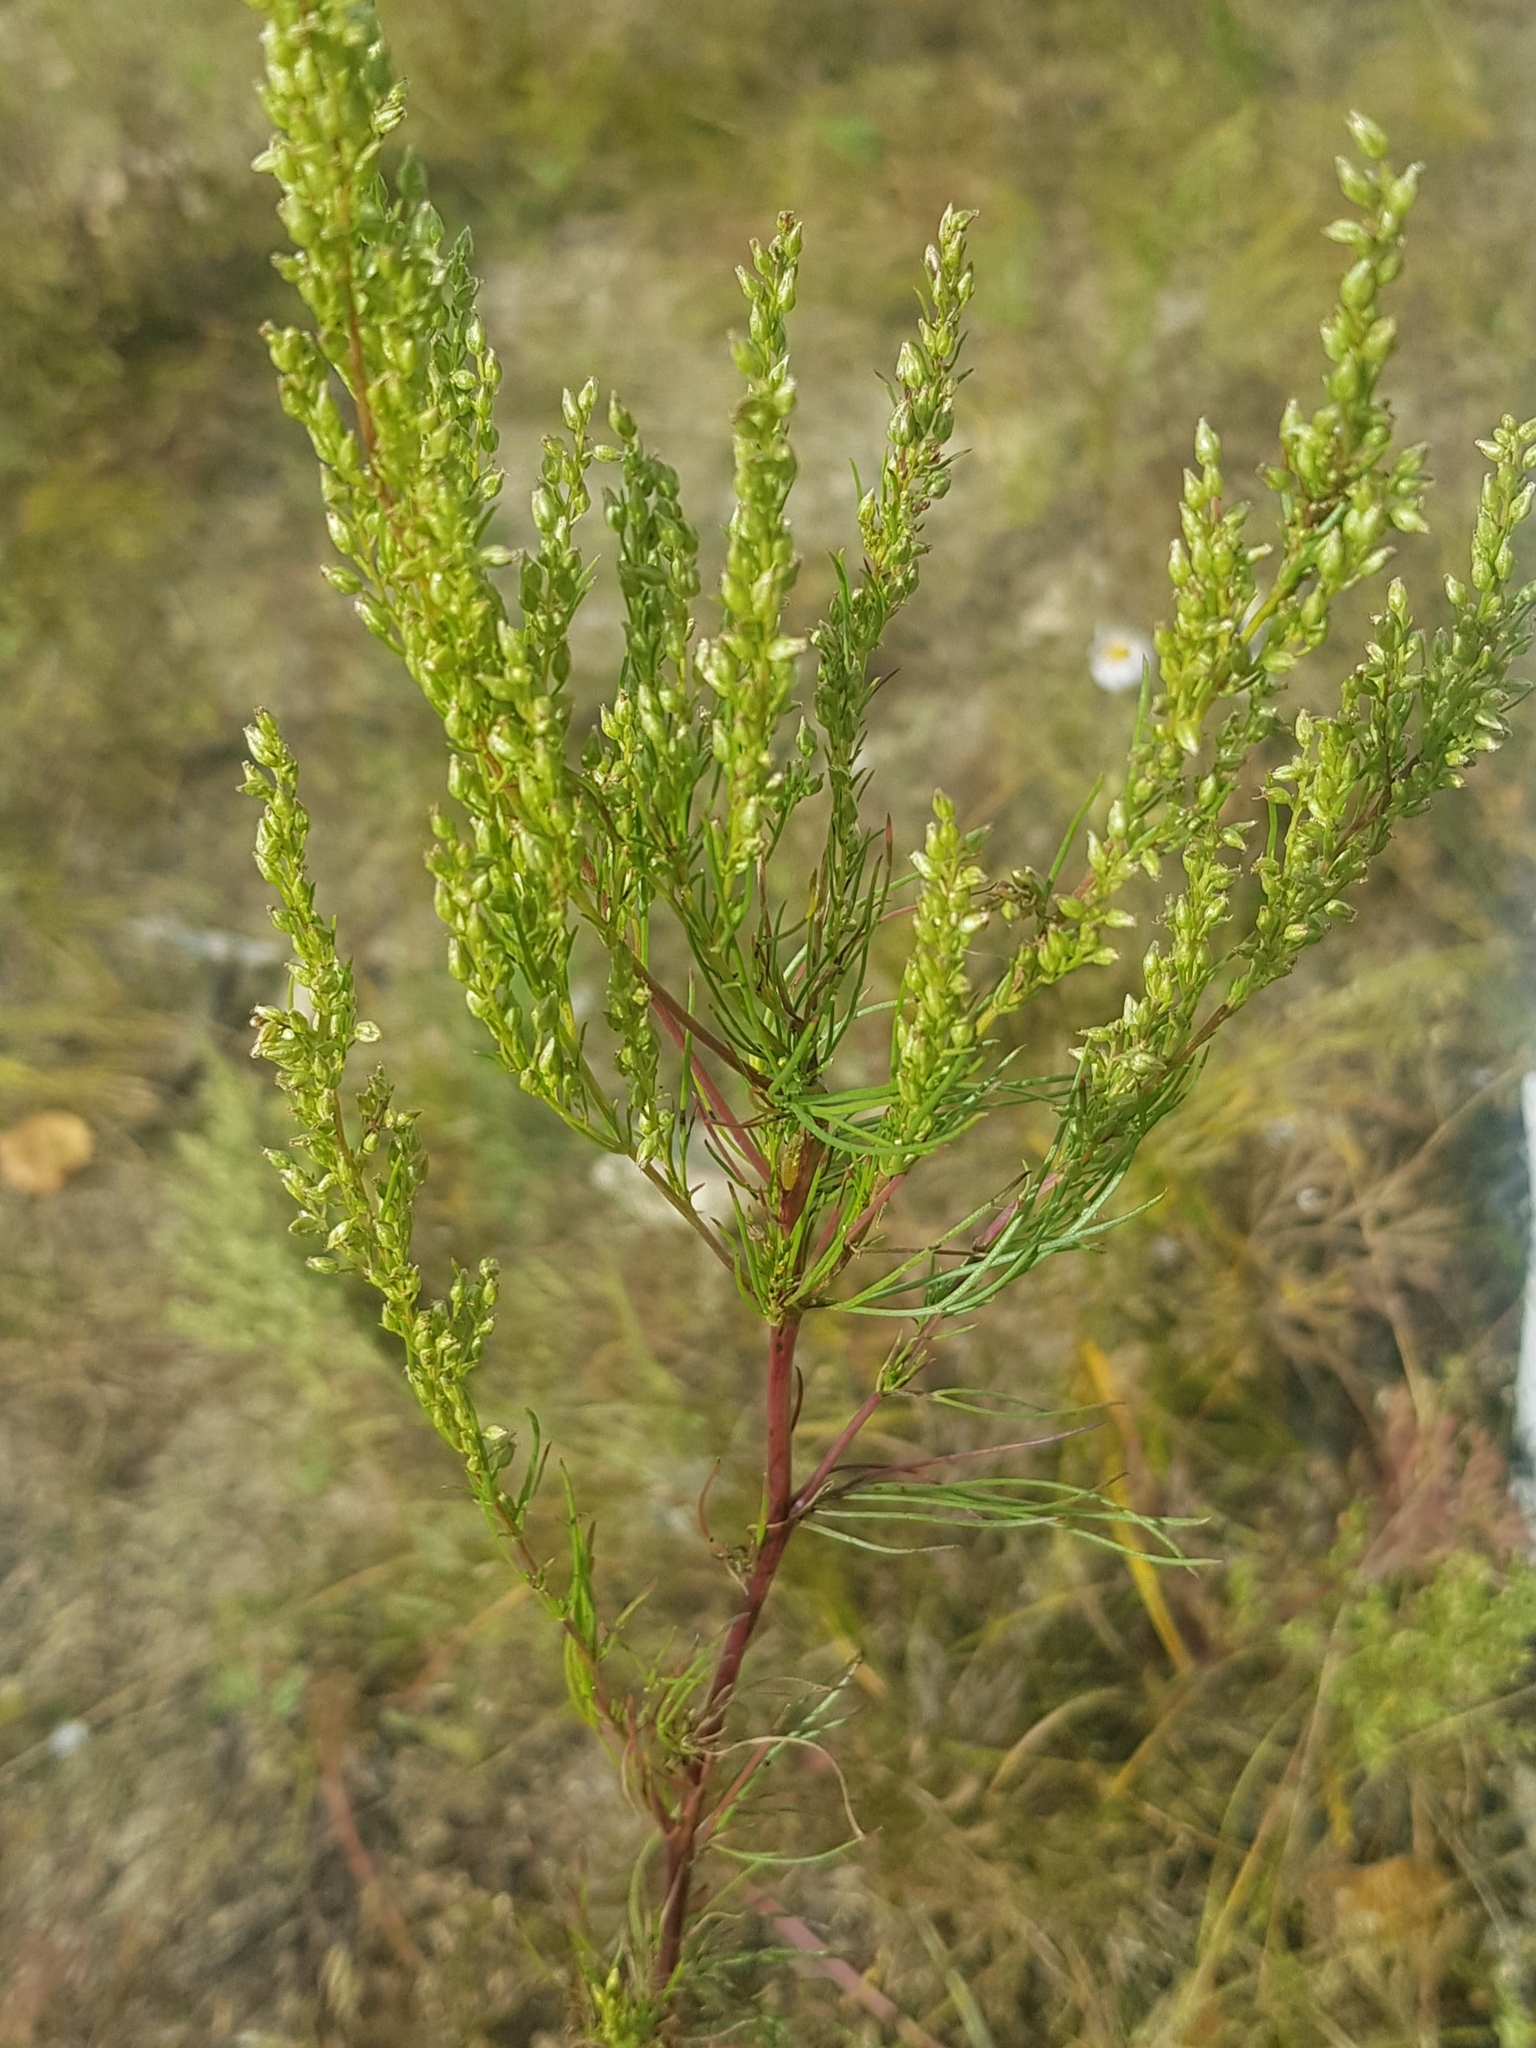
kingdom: Plantae
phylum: Tracheophyta
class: Magnoliopsida
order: Asterales
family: Asteraceae
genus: Artemisia
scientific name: Artemisia pubescens
